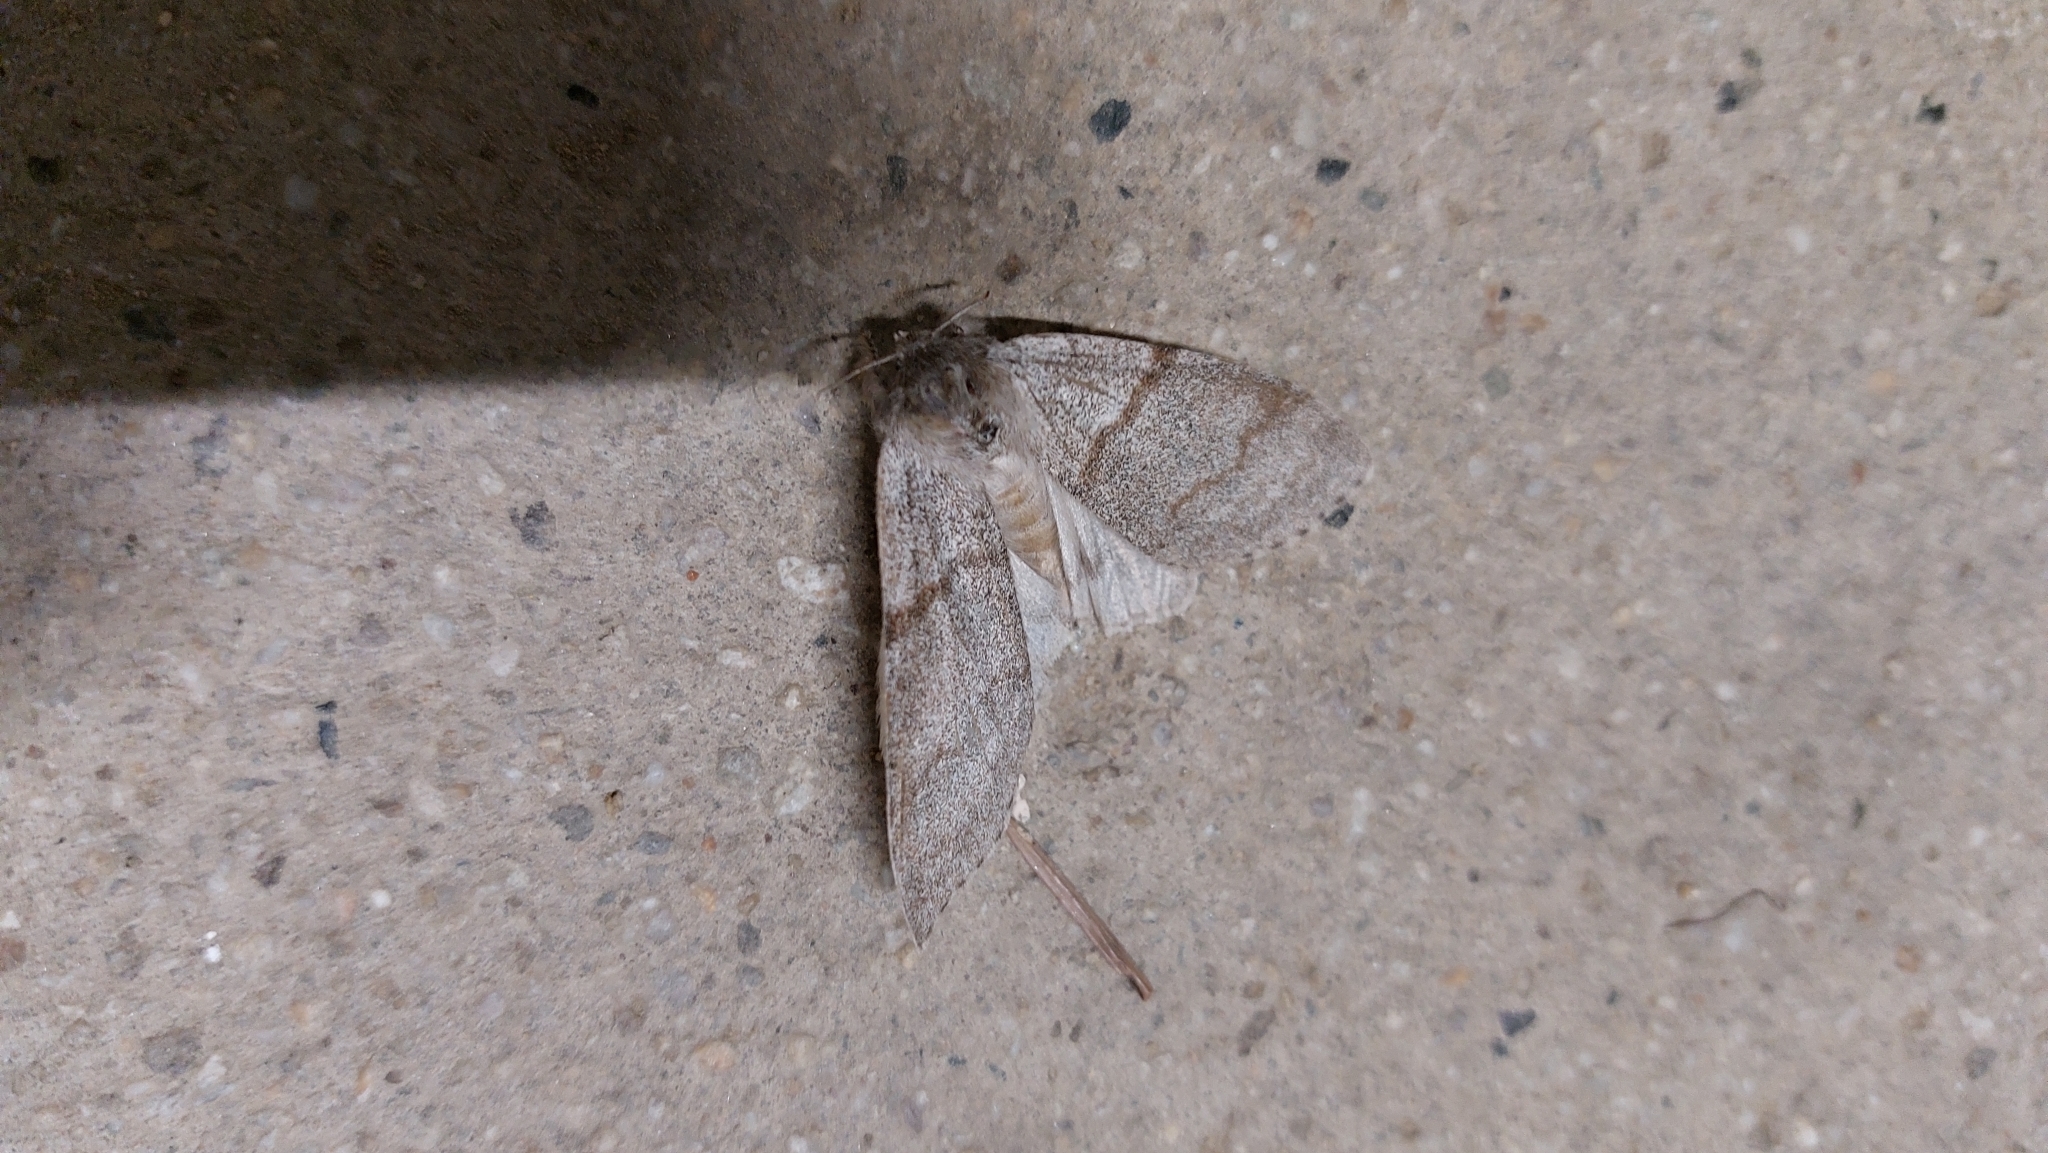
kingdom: Animalia
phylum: Arthropoda
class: Insecta
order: Lepidoptera
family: Erebidae
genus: Calliteara
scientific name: Calliteara pudibunda
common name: Pale tussock
